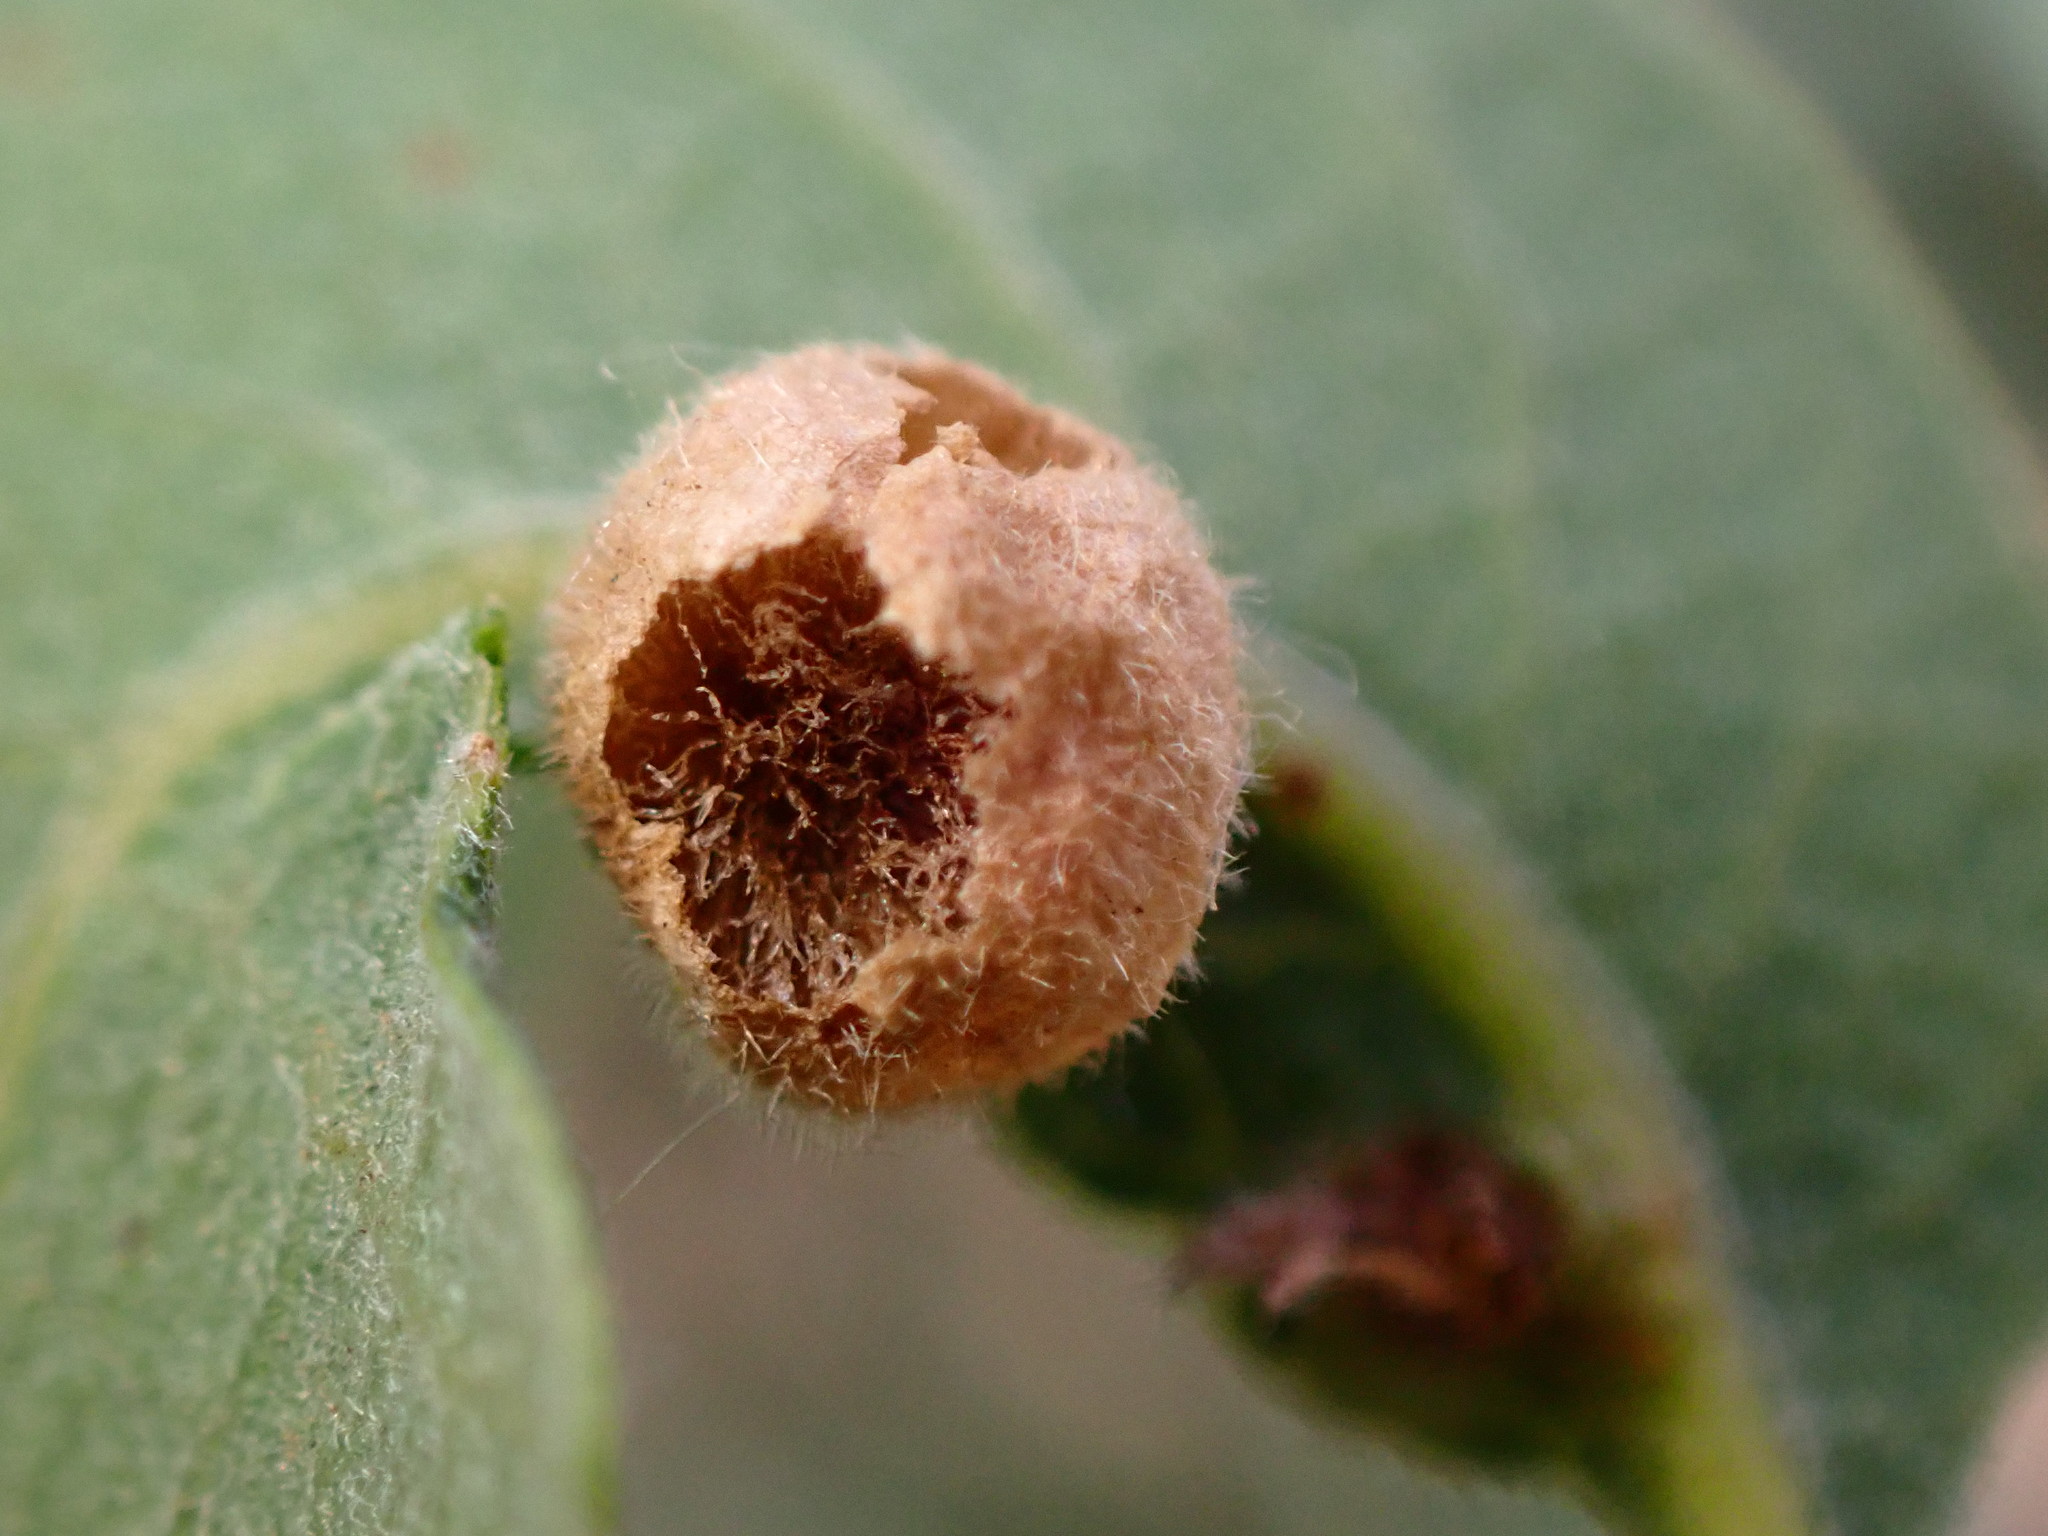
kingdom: Animalia
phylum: Arthropoda
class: Insecta
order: Hymenoptera
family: Cynipidae
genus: Andricus
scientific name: Andricus
